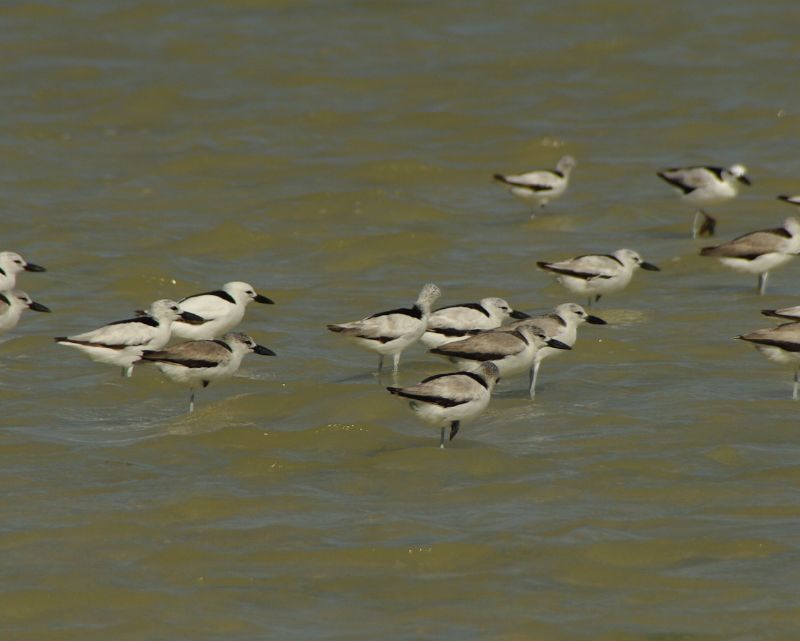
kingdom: Animalia
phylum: Chordata
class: Aves
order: Charadriiformes
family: Dromadidae
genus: Dromas
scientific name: Dromas ardeola
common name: Crab-plover
